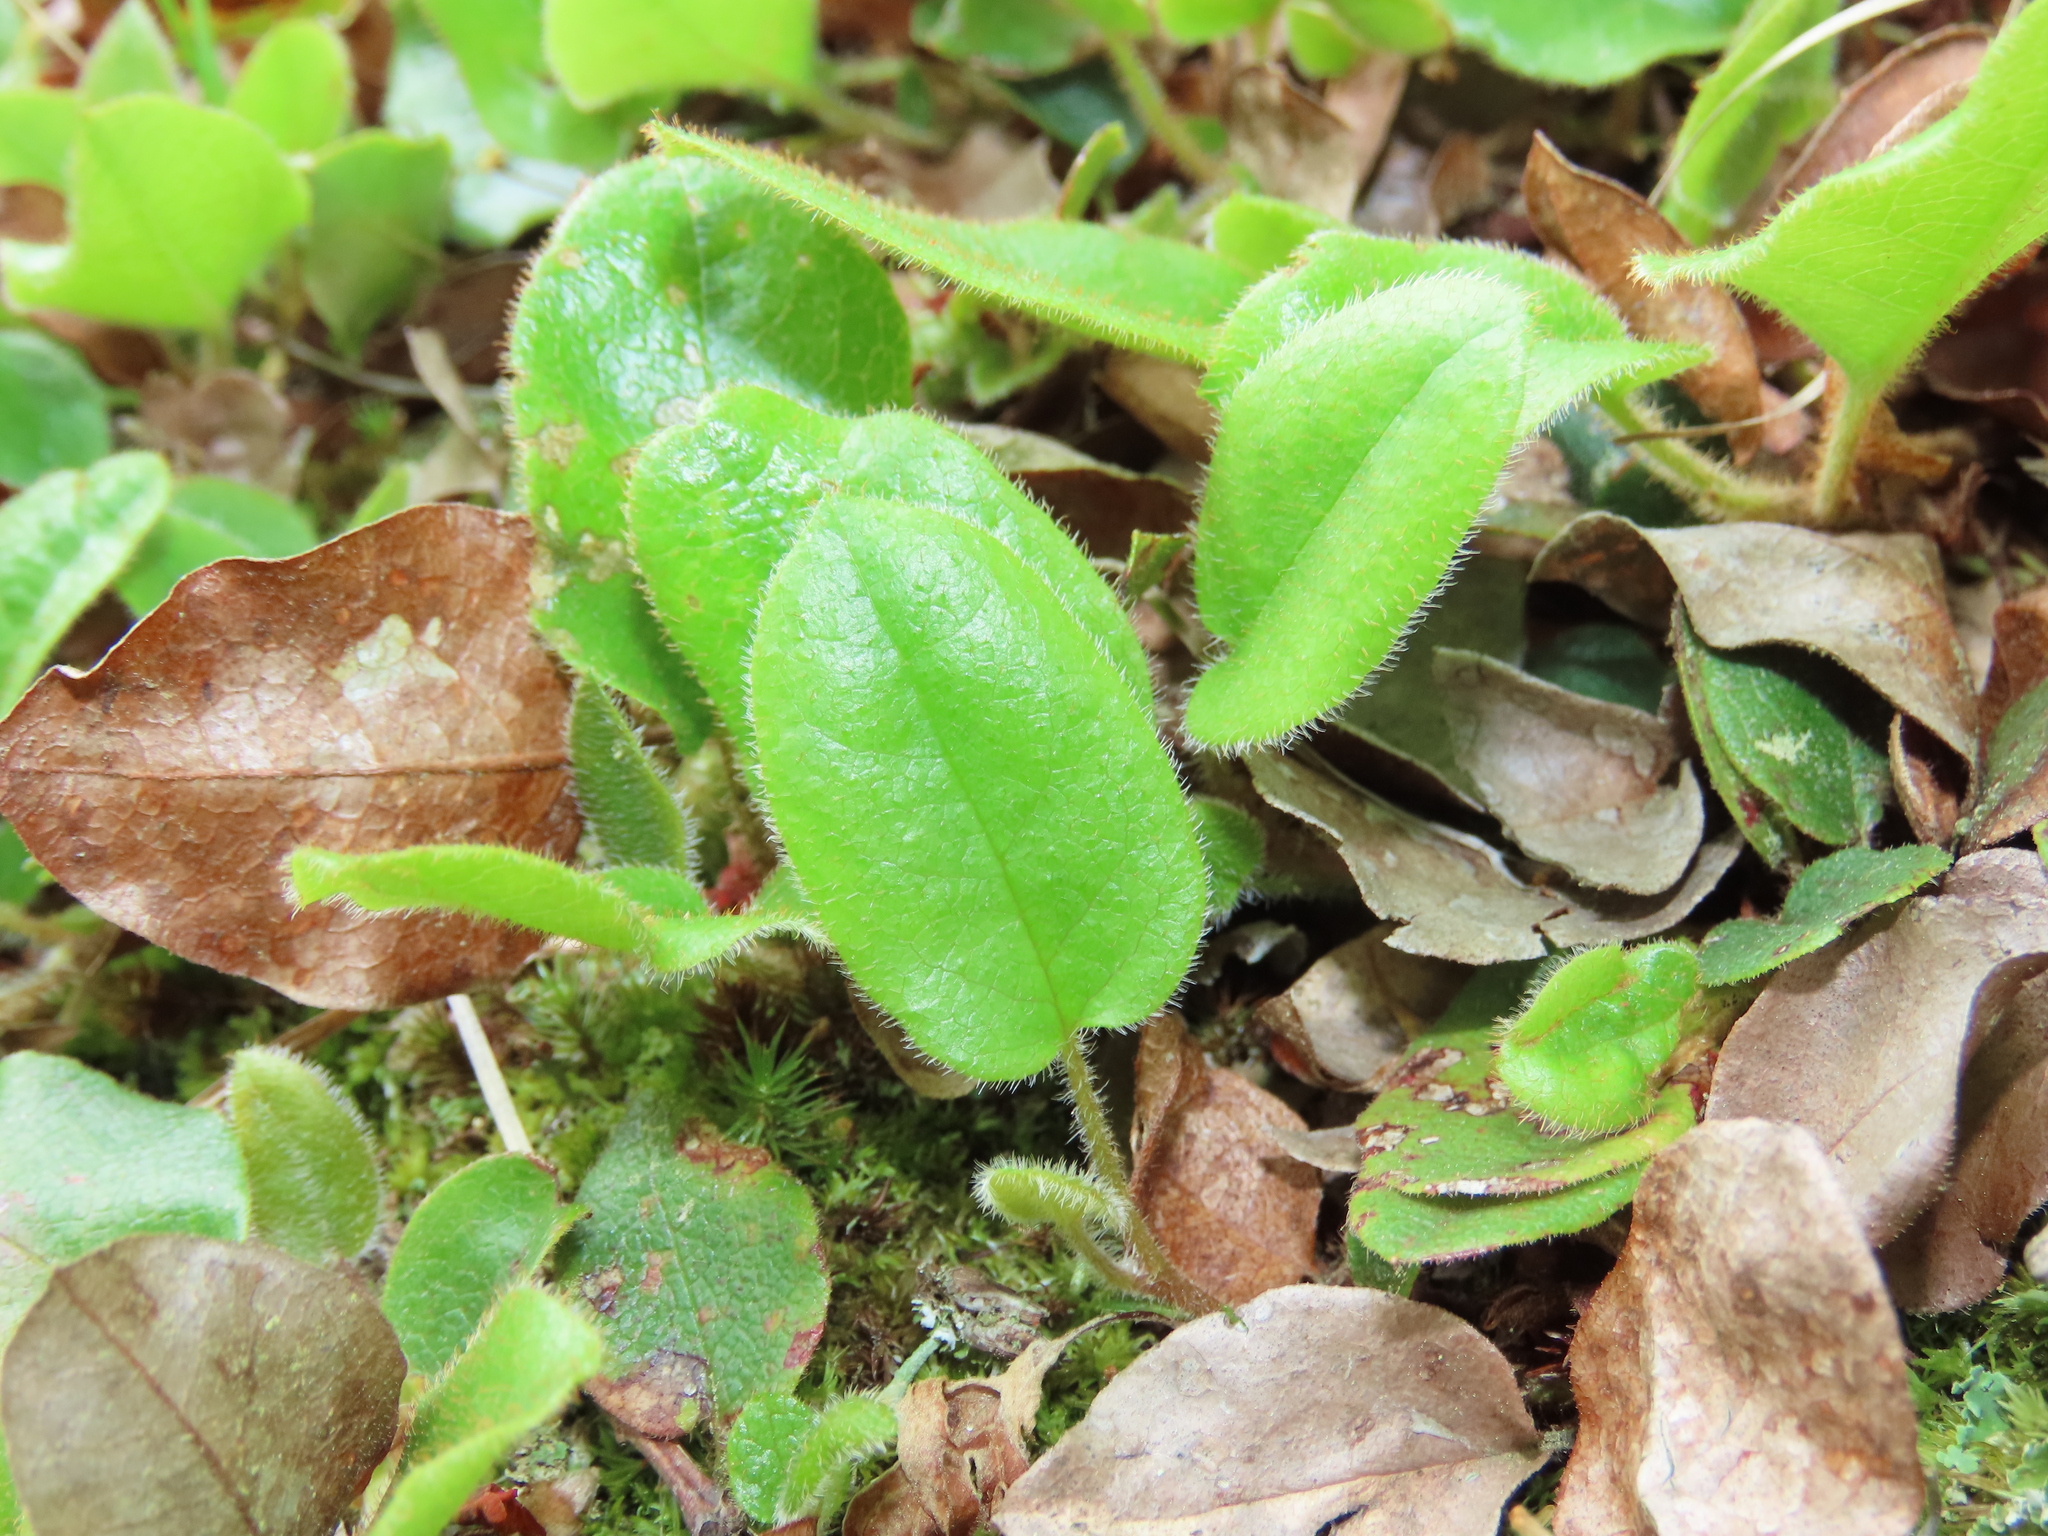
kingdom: Plantae
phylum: Tracheophyta
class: Magnoliopsida
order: Ericales
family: Ericaceae
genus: Epigaea
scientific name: Epigaea repens
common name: Gravelroot
